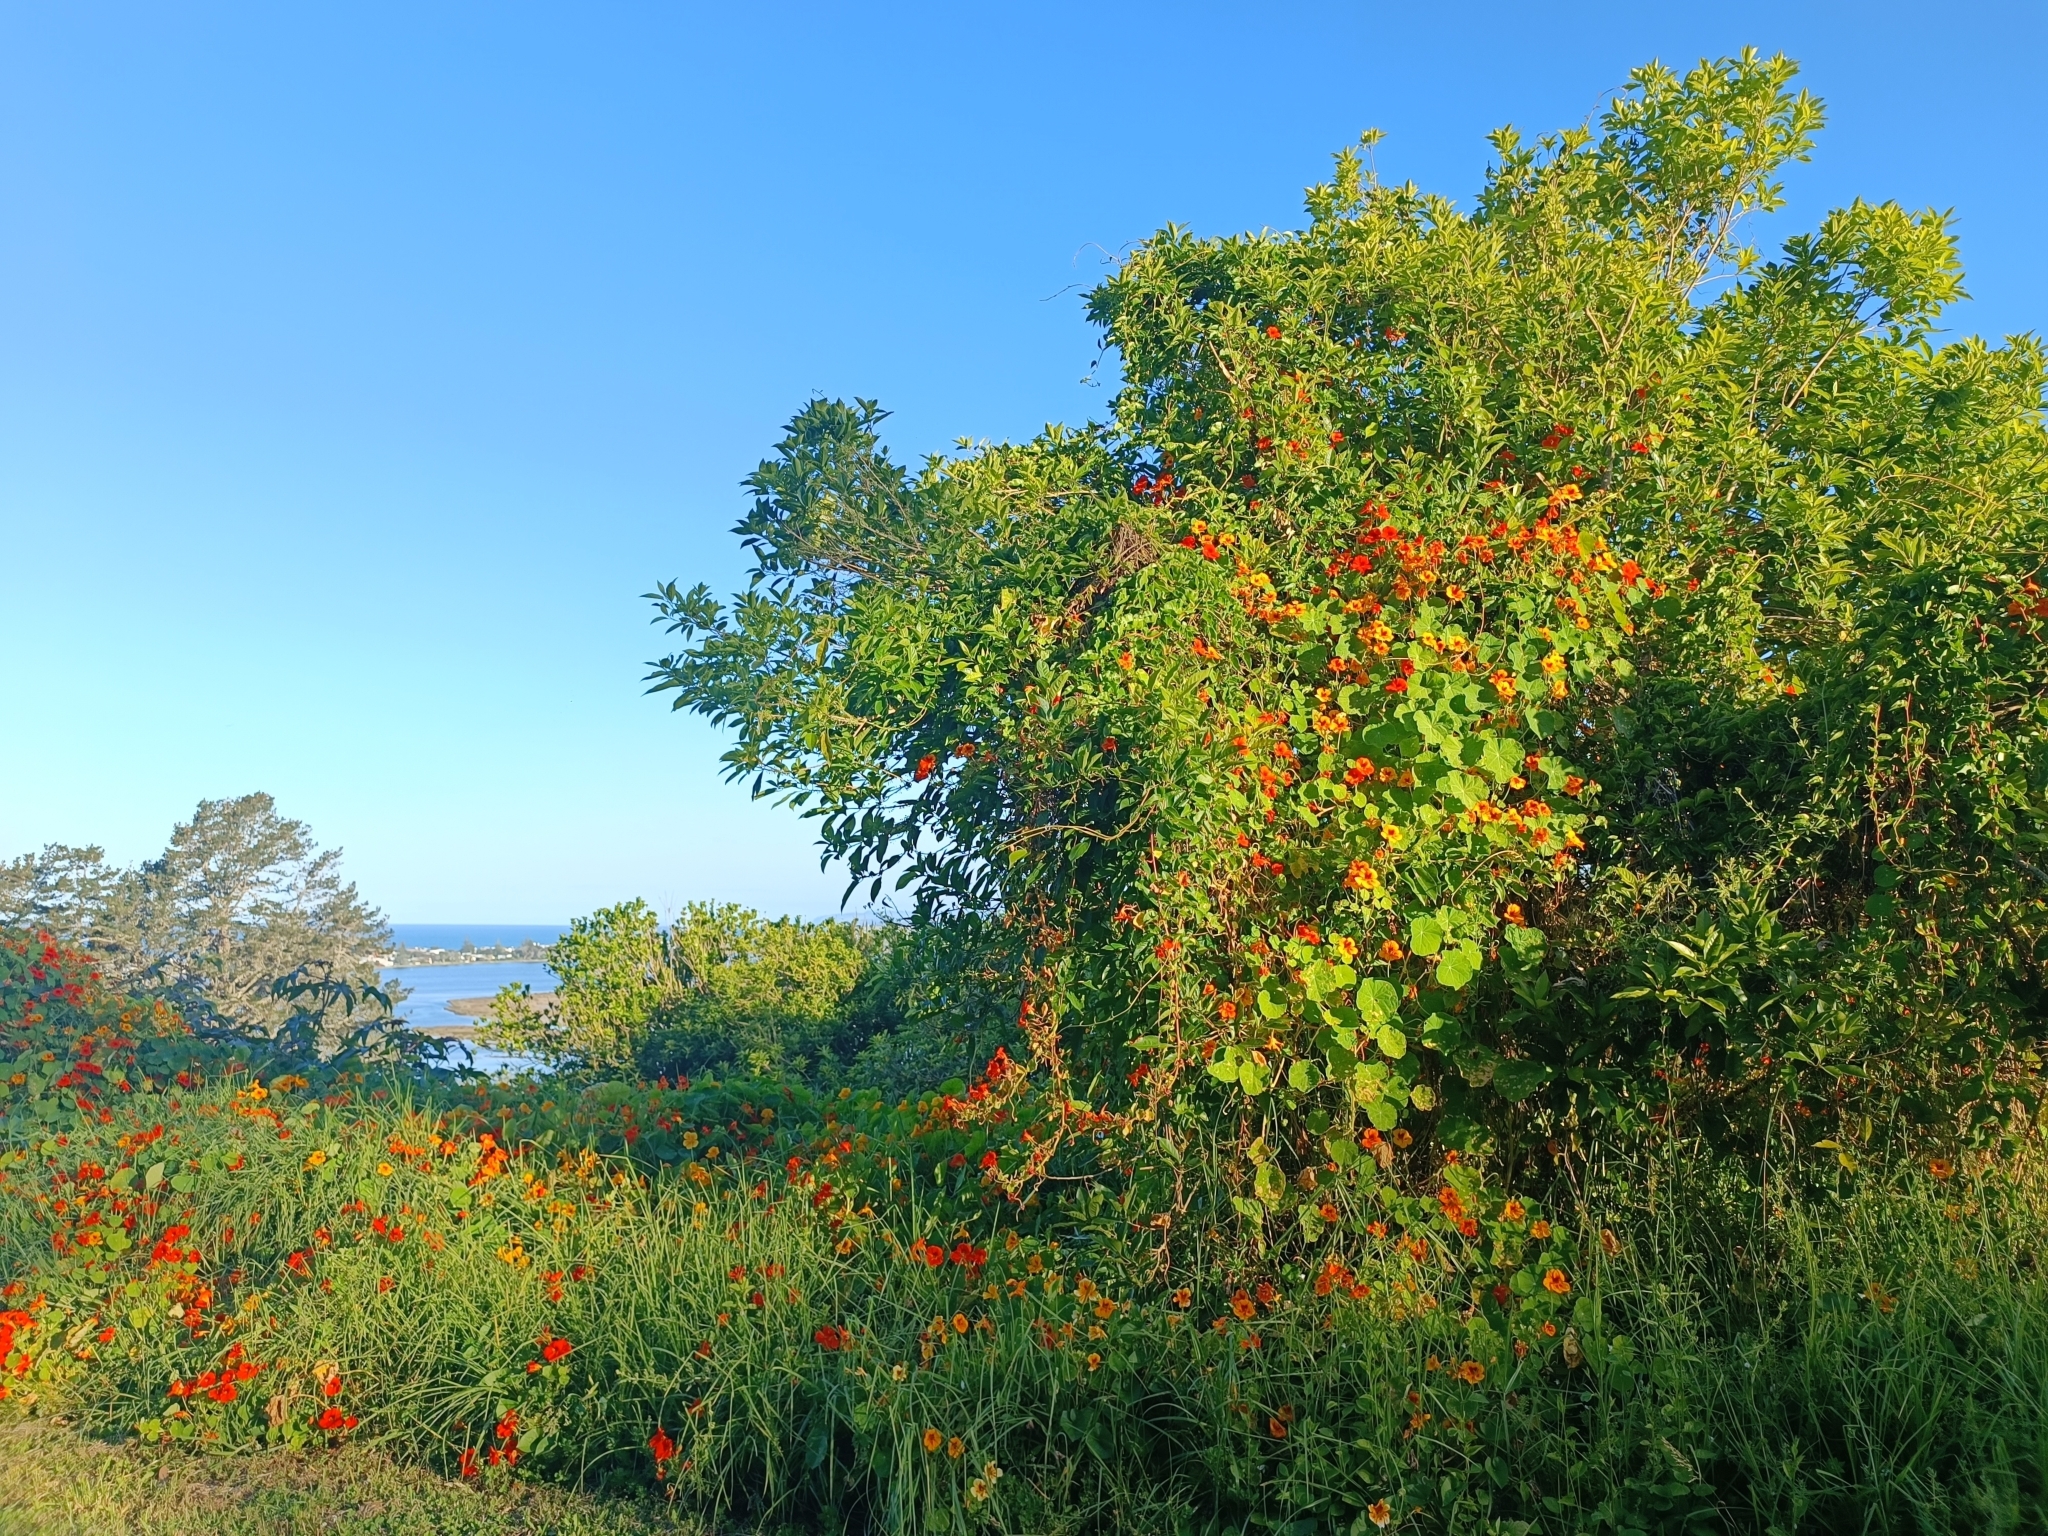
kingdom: Plantae
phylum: Tracheophyta
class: Magnoliopsida
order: Brassicales
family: Tropaeolaceae
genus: Tropaeolum
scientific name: Tropaeolum majus
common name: Nasturtium
